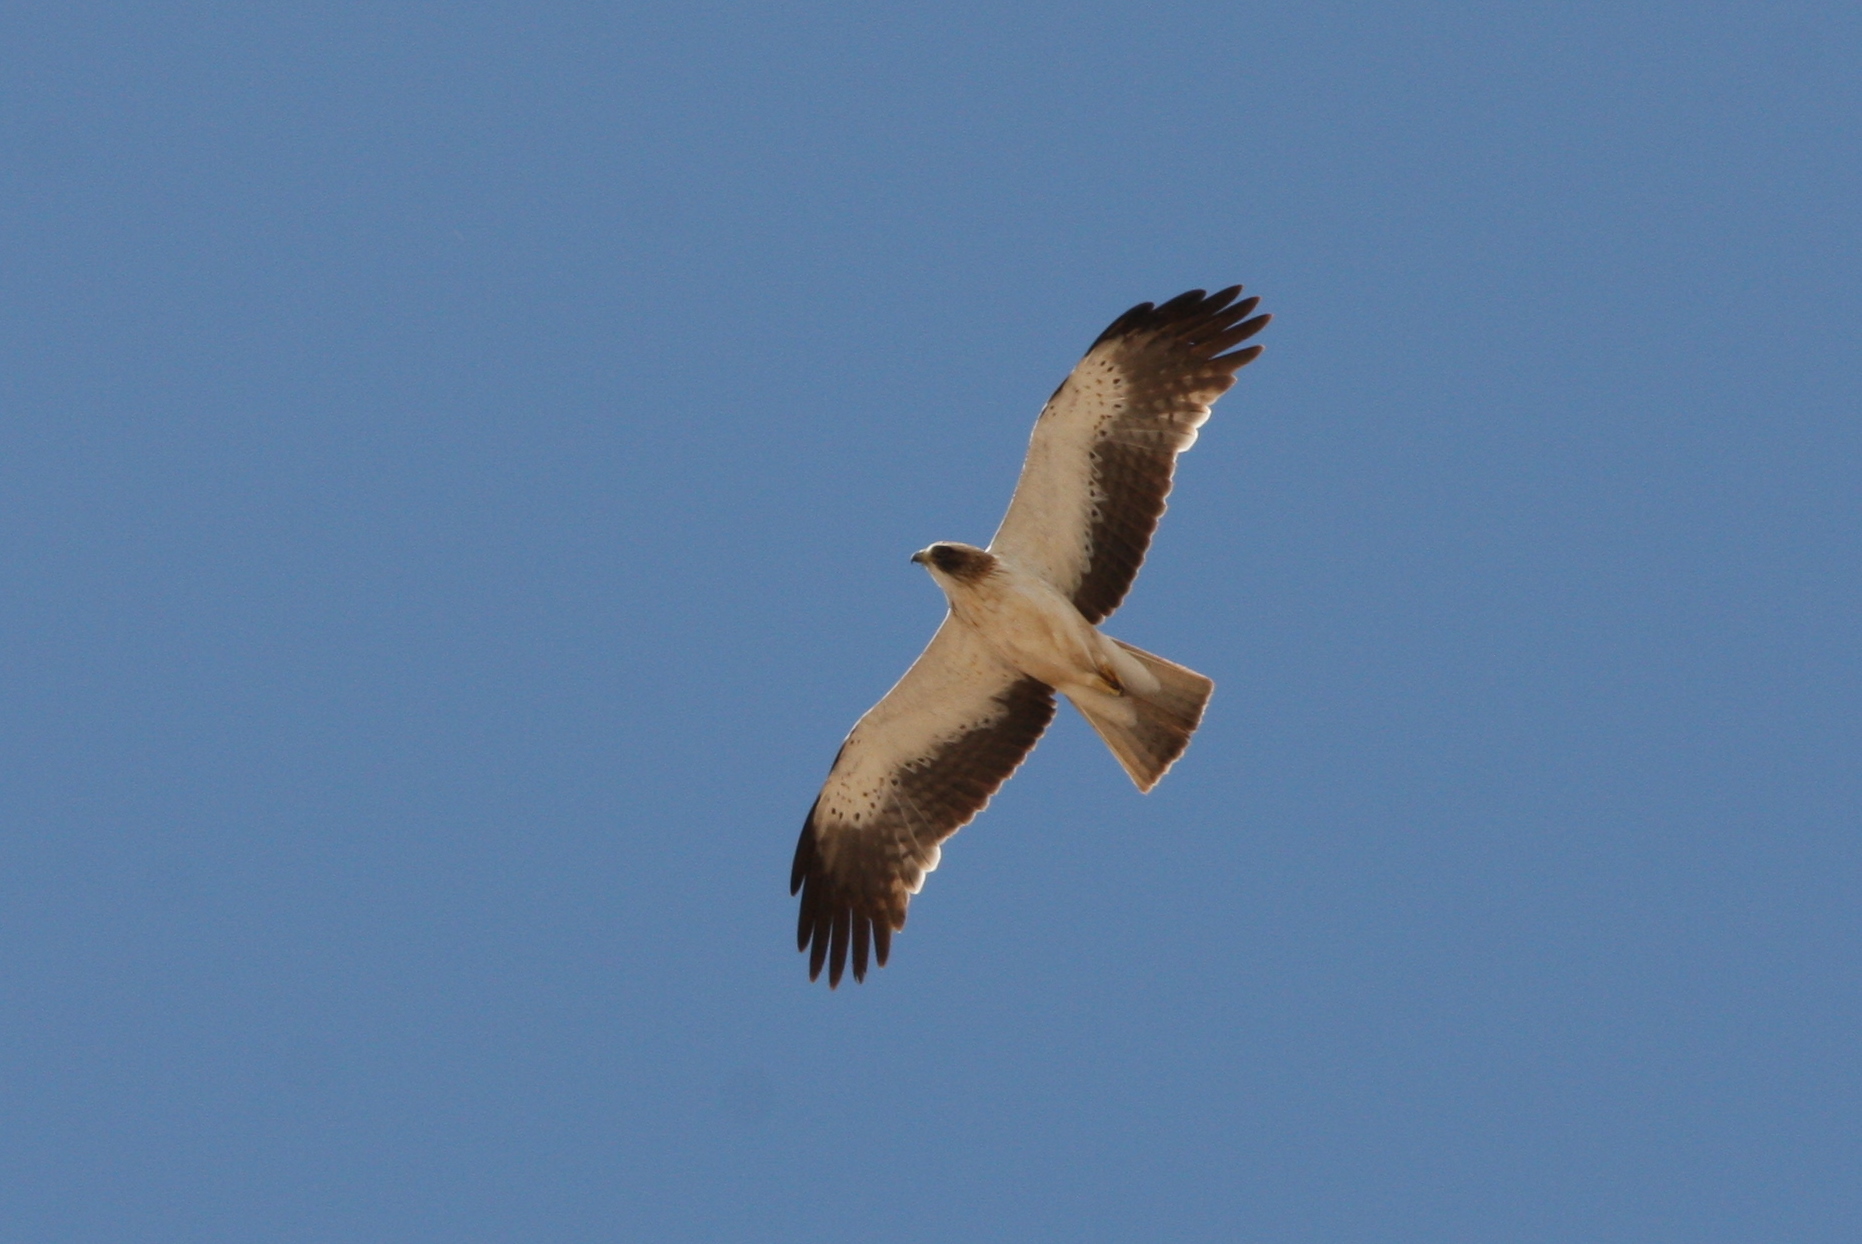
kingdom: Animalia
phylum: Chordata
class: Aves
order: Accipitriformes
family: Accipitridae
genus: Hieraaetus
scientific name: Hieraaetus pennatus
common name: Booted eagle
